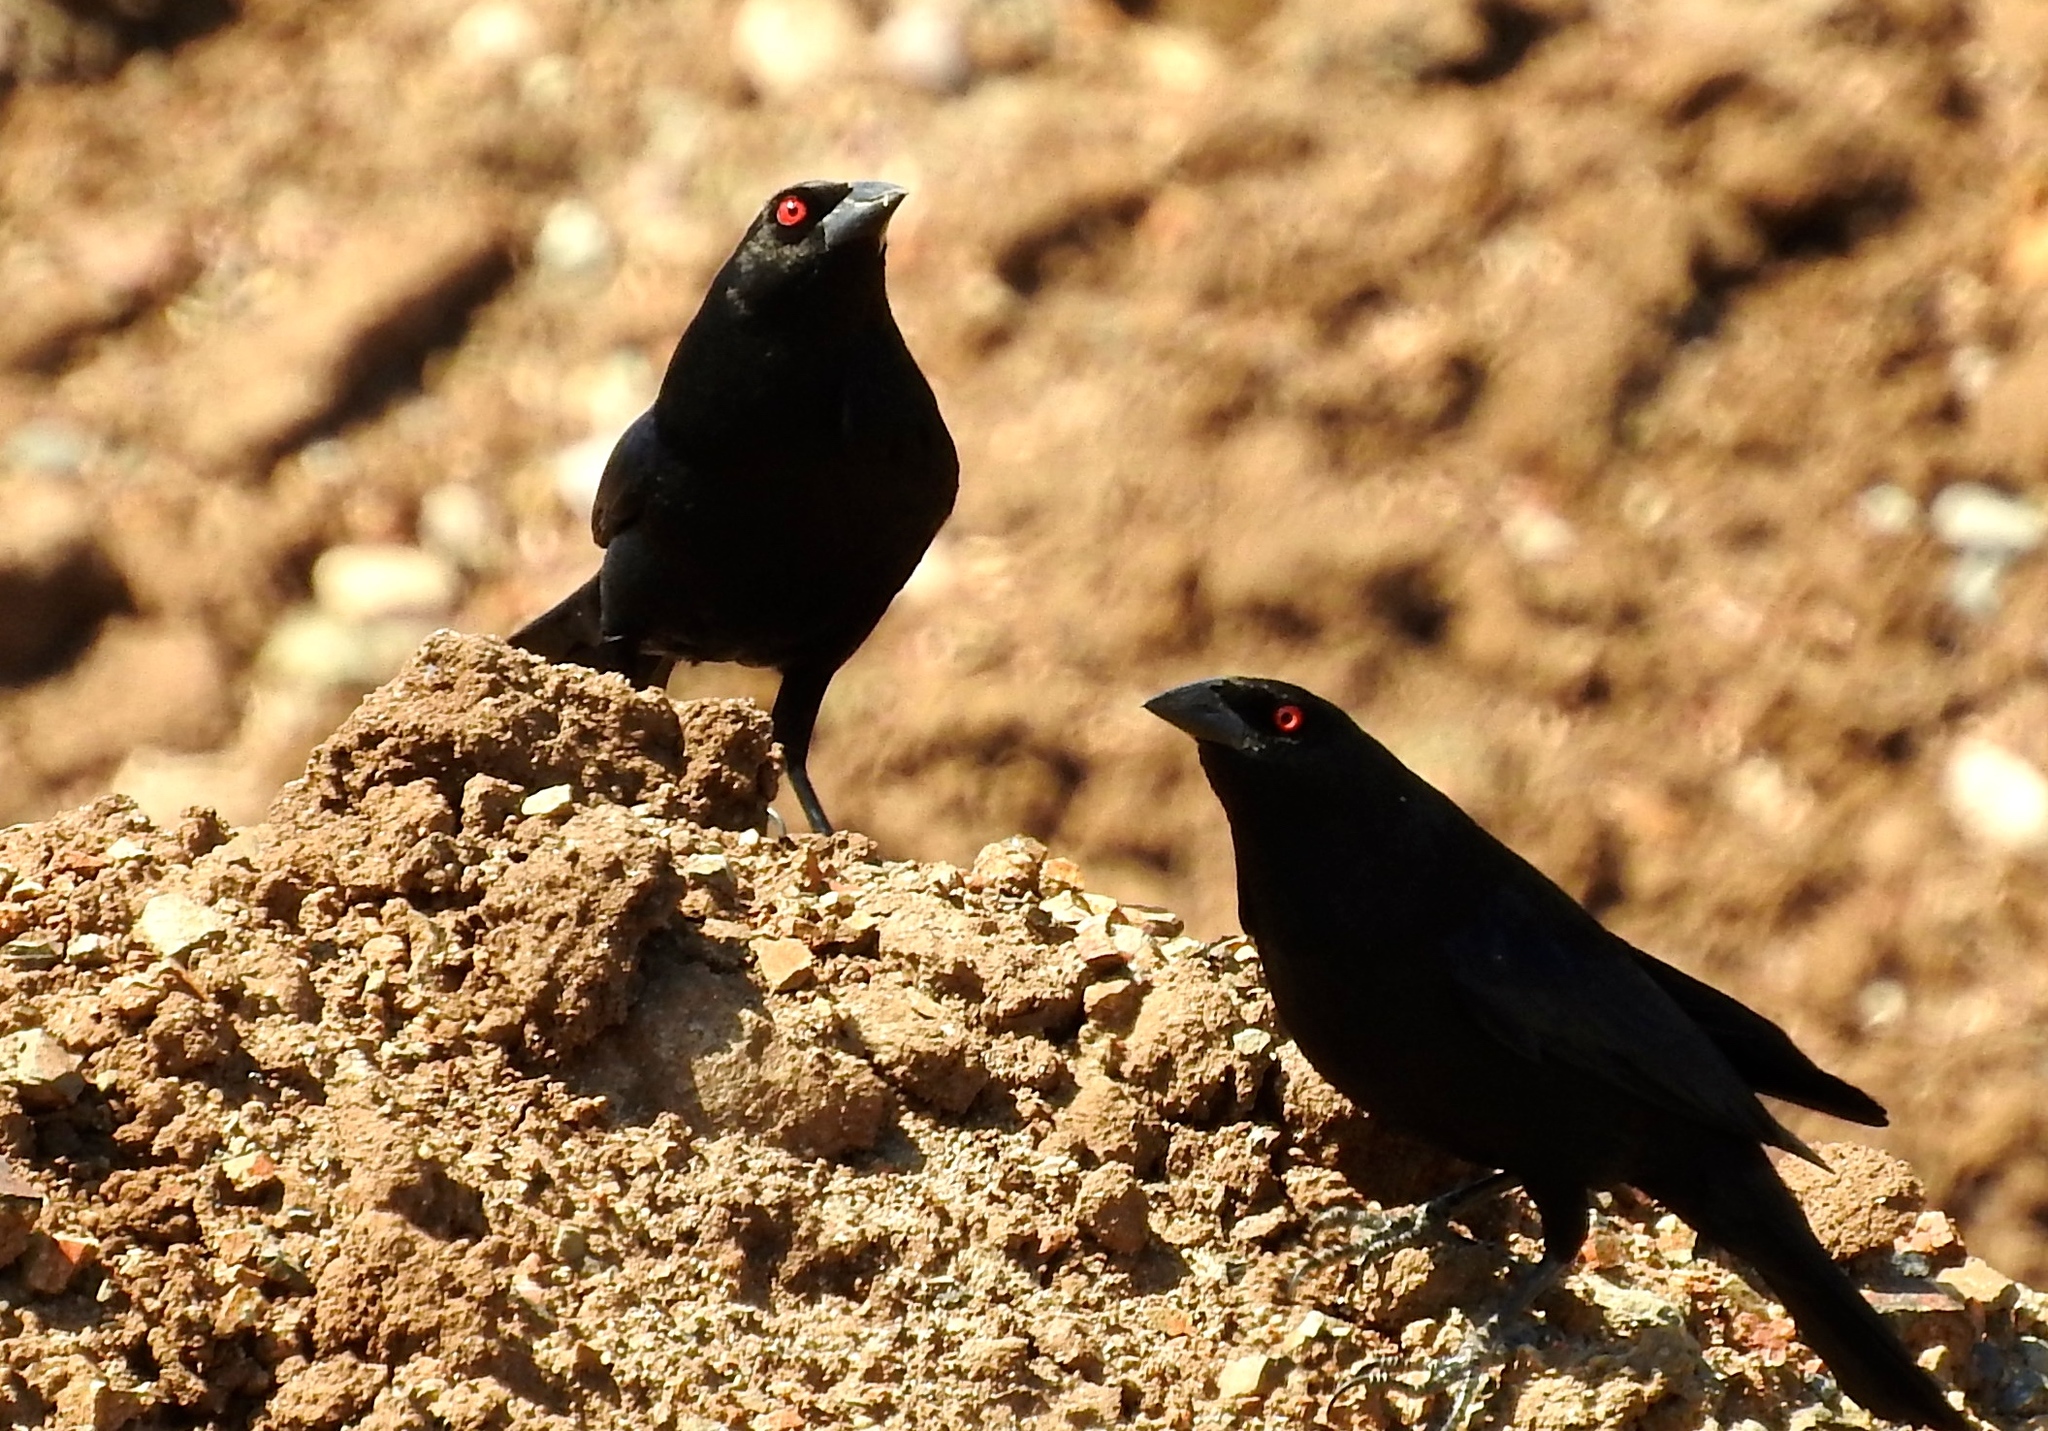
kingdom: Animalia
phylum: Chordata
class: Aves
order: Passeriformes
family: Icteridae
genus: Molothrus
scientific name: Molothrus aeneus
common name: Bronzed cowbird
